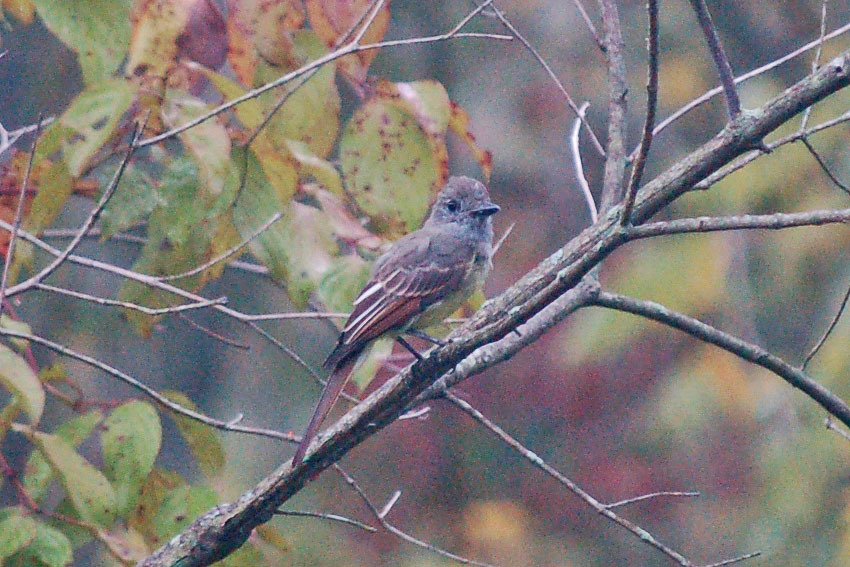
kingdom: Animalia
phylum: Chordata
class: Aves
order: Passeriformes
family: Tyrannidae
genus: Myiarchus
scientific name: Myiarchus crinitus
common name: Great crested flycatcher
